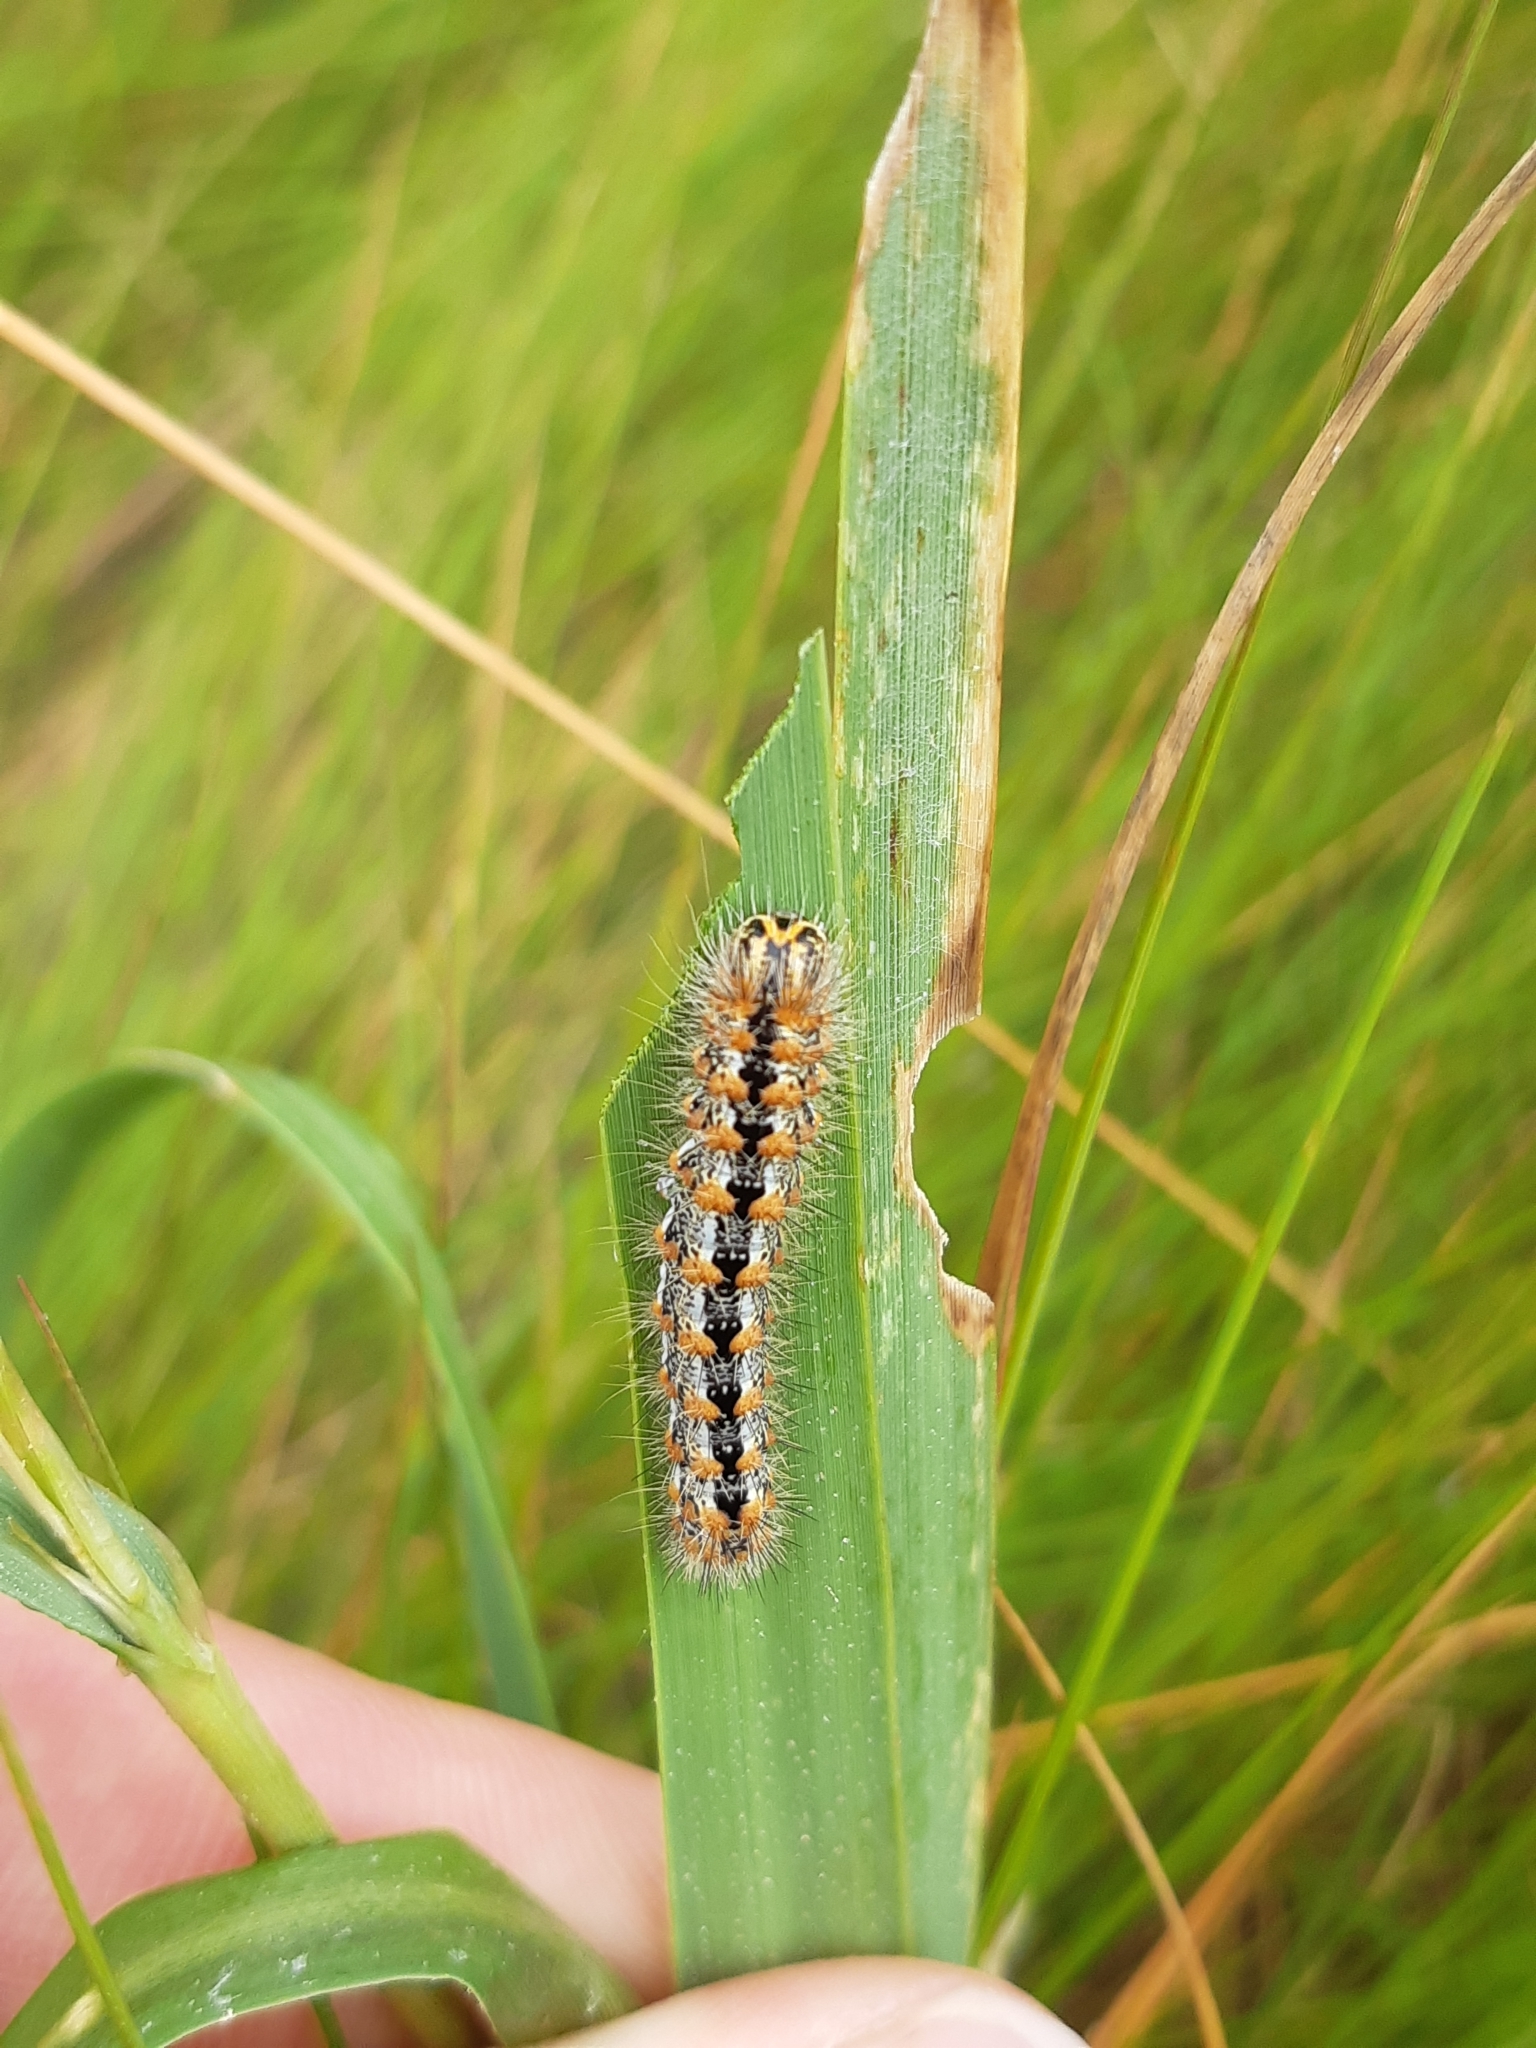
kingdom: Animalia
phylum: Arthropoda
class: Insecta
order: Lepidoptera
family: Noctuidae
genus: Acronicta
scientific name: Acronicta insularis
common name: Henry's marsh moth
